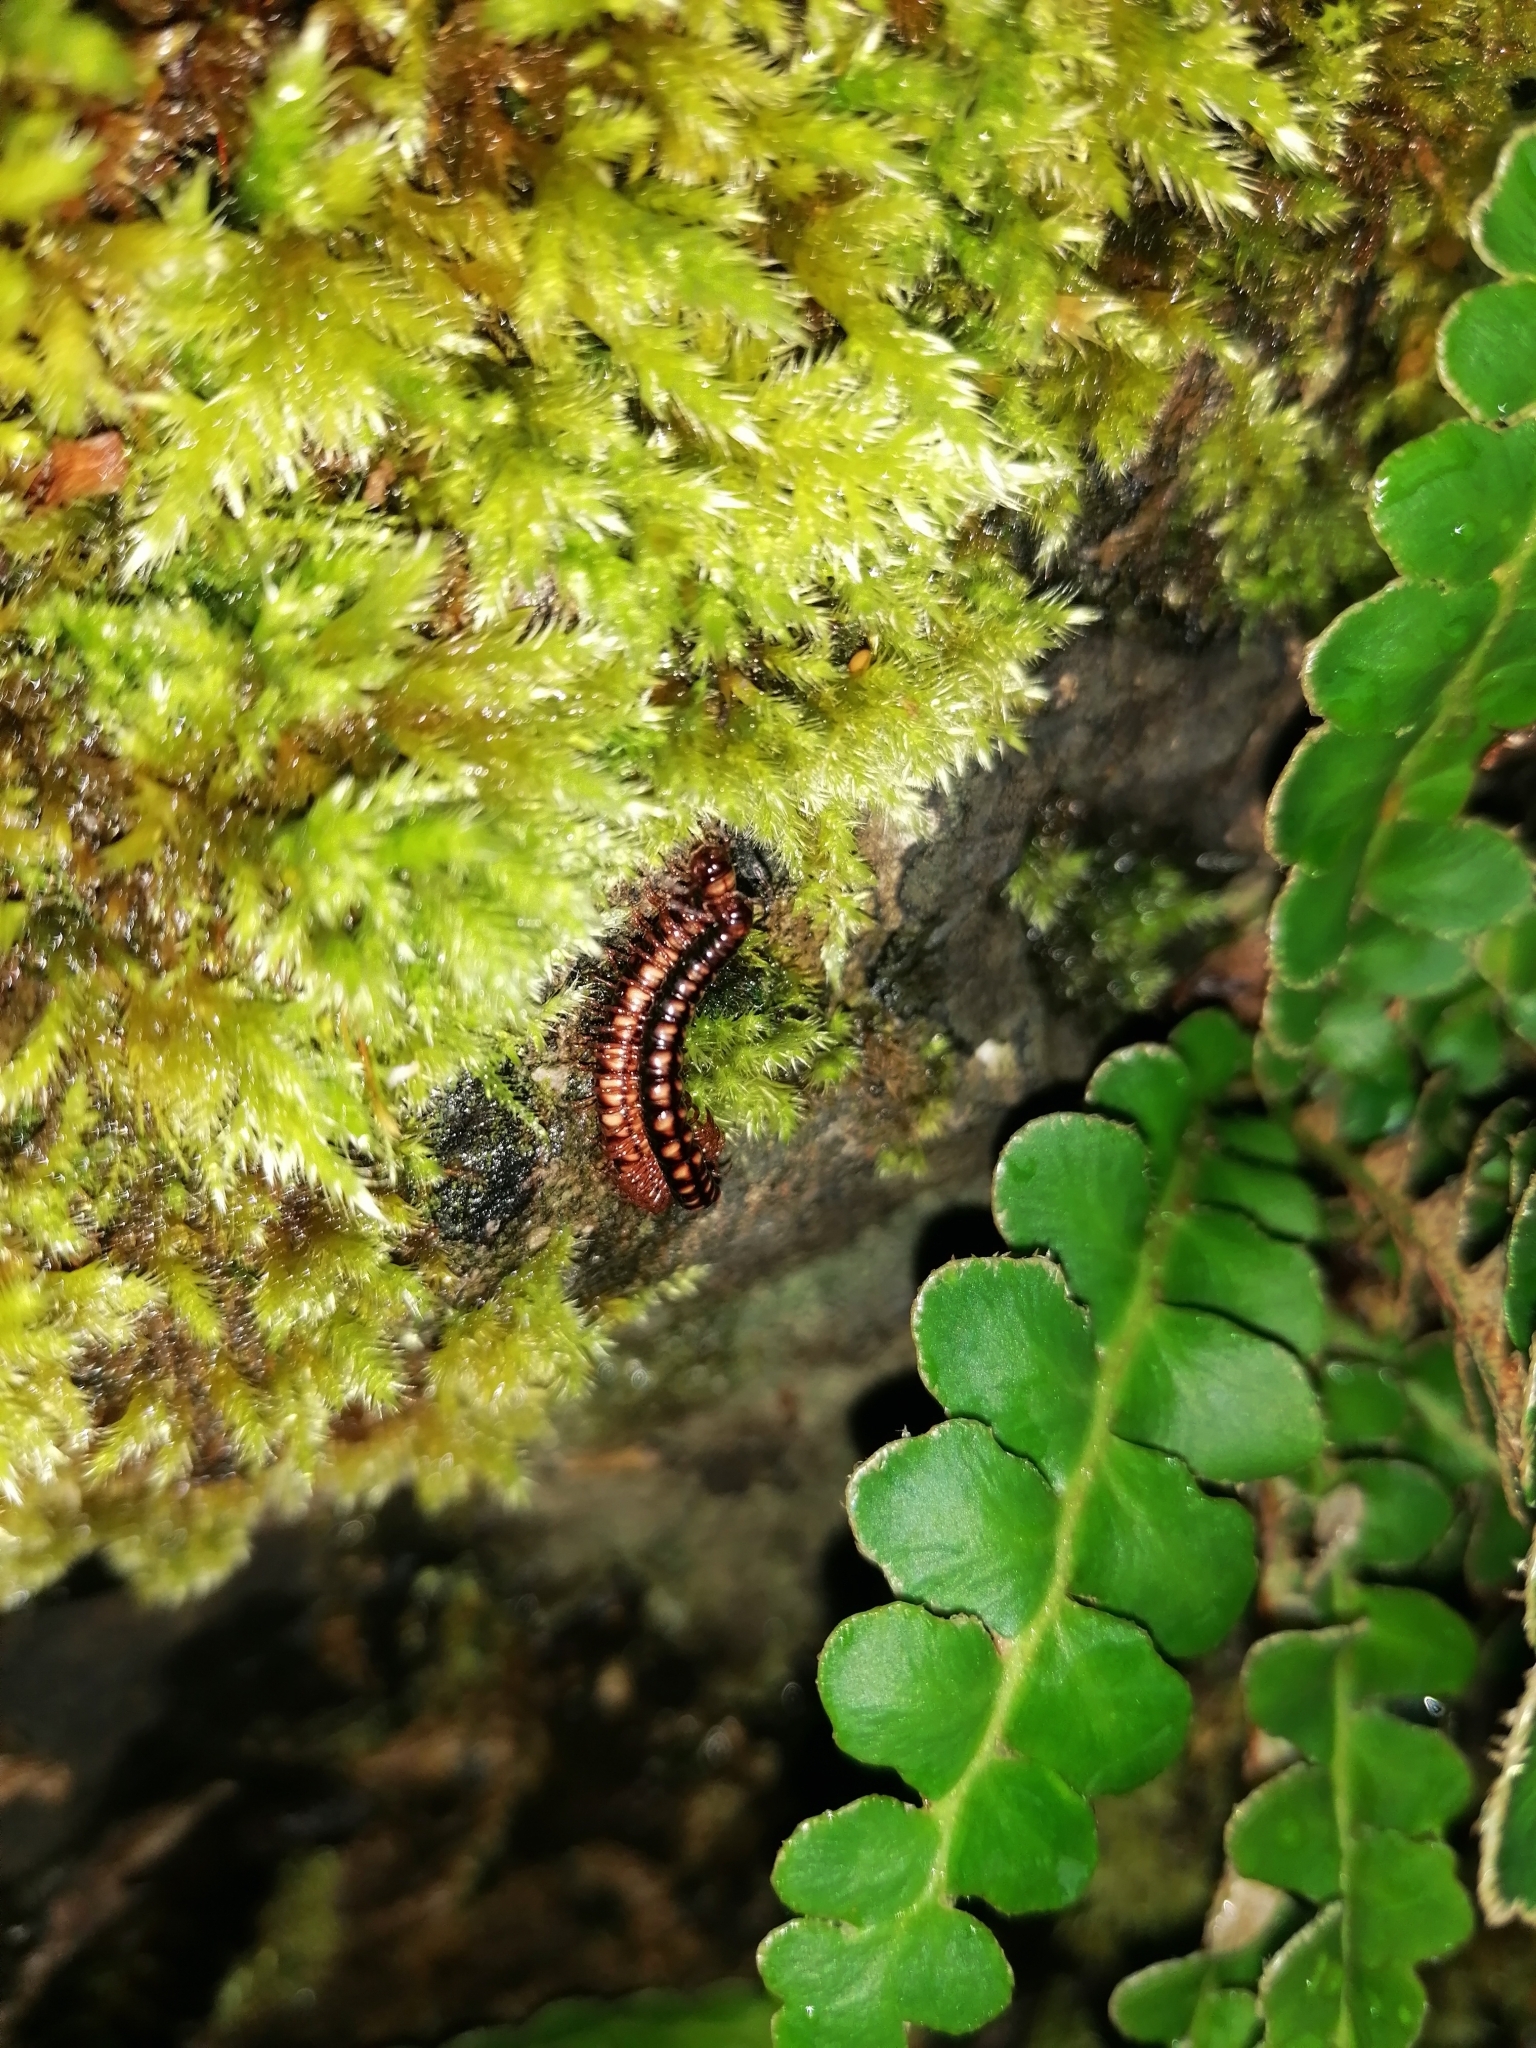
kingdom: Animalia
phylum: Arthropoda
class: Diplopoda
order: Polydesmida
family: Paradoxosomatidae
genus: Strongylosoma
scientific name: Strongylosoma stigmatosus
